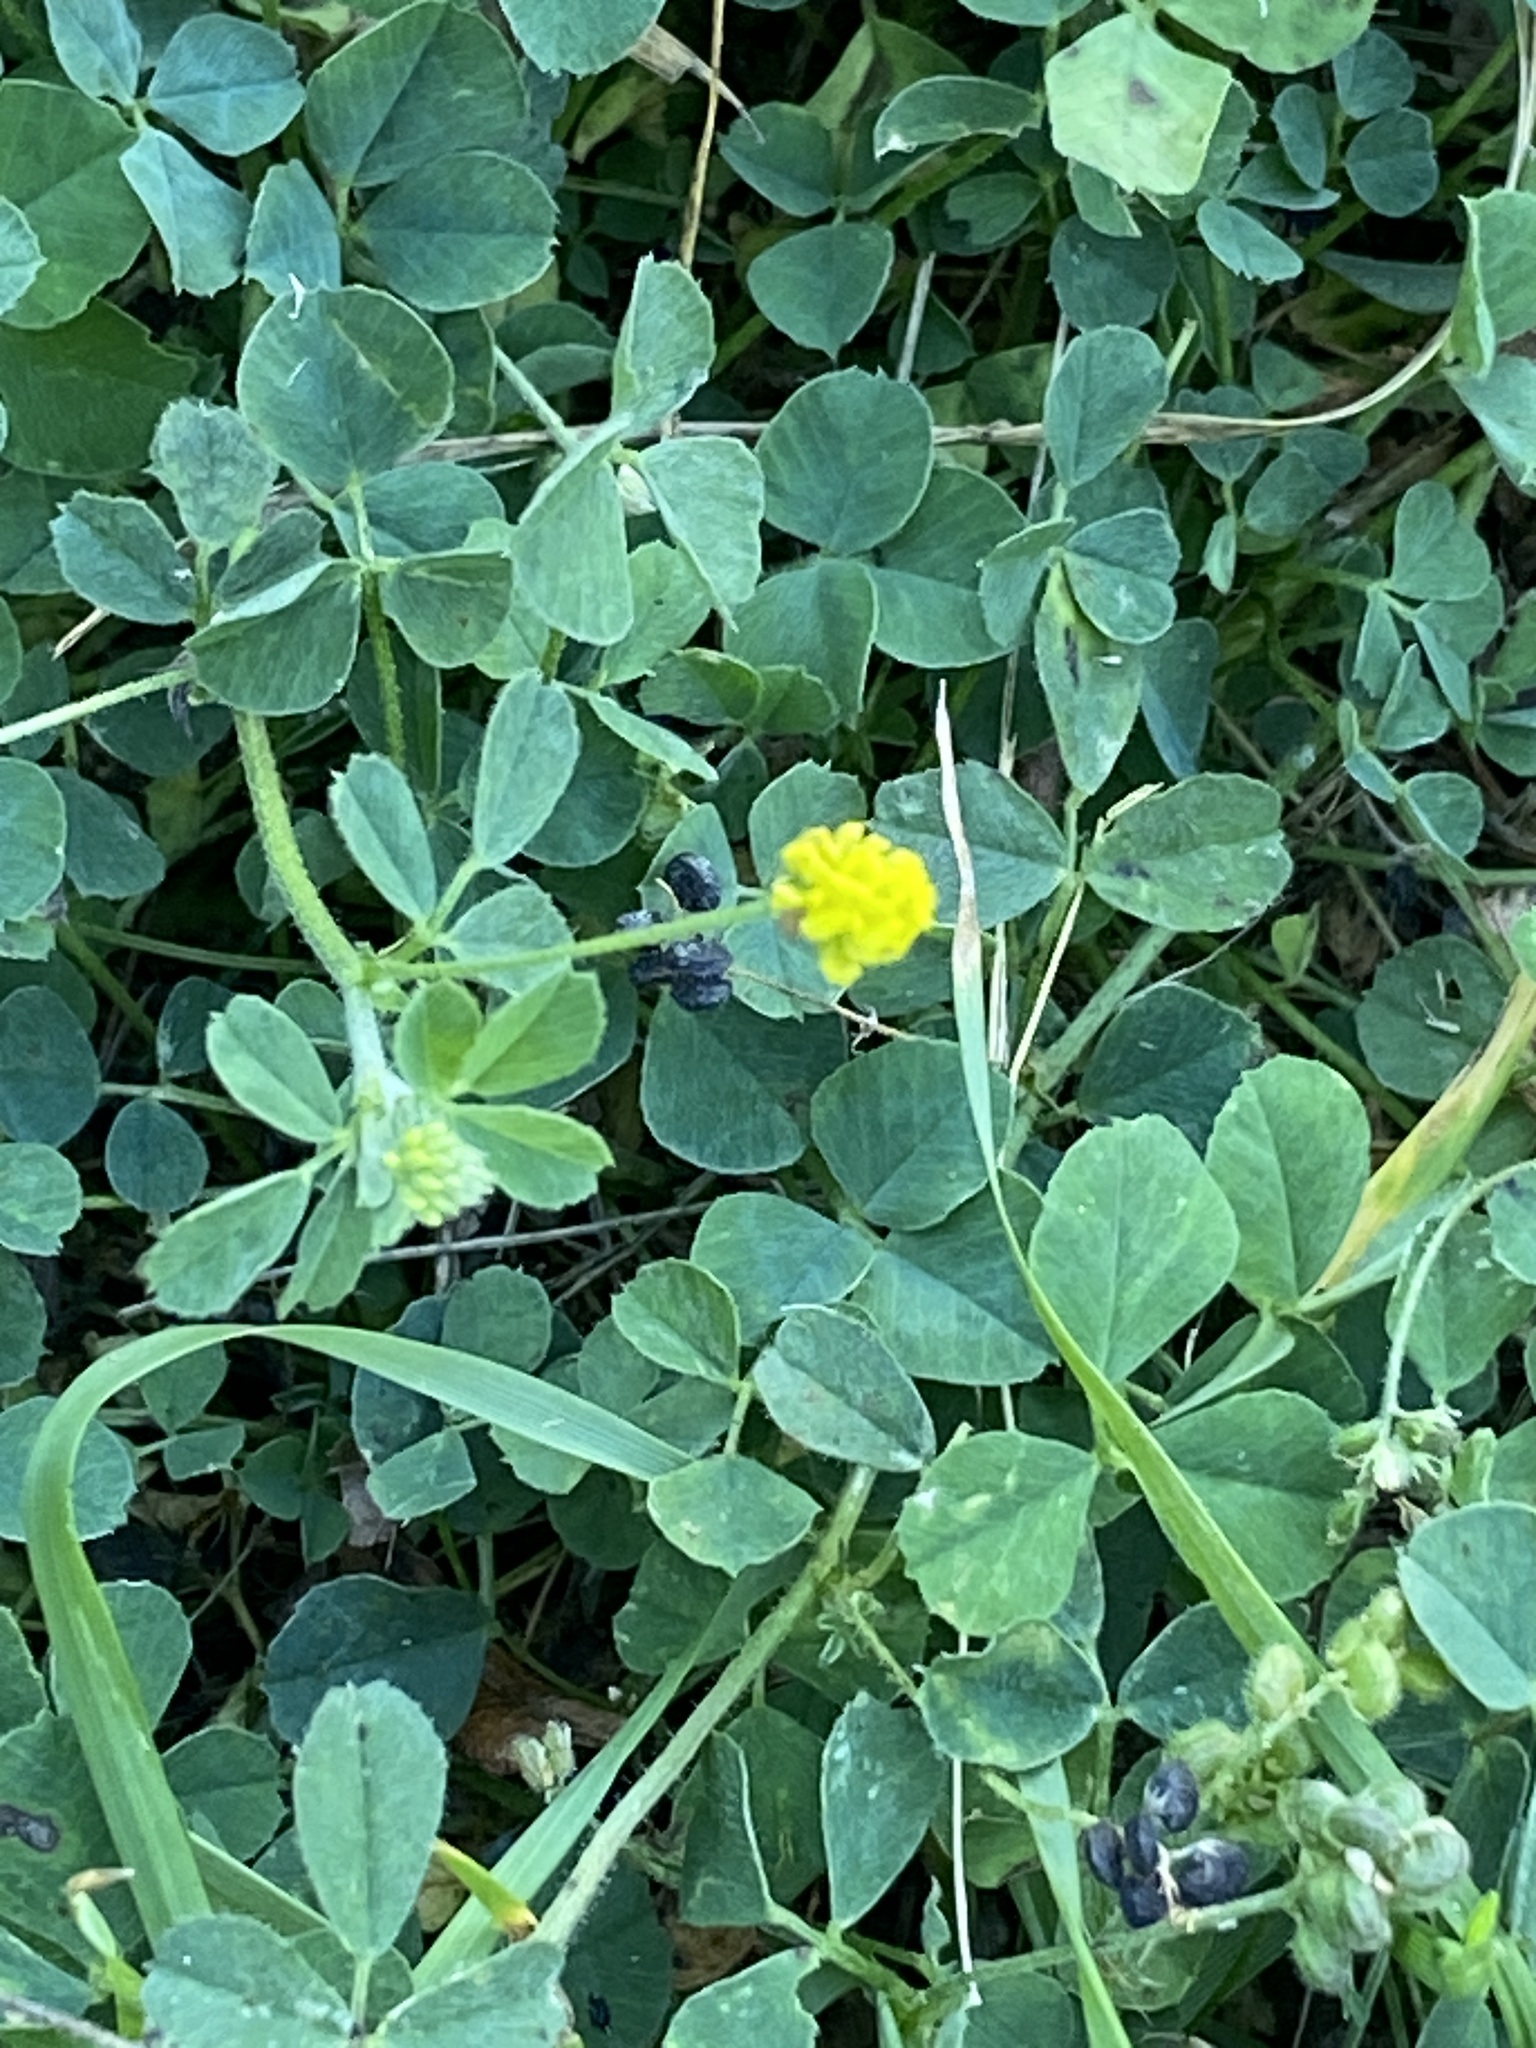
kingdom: Plantae
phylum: Tracheophyta
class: Magnoliopsida
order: Fabales
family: Fabaceae
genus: Medicago
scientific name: Medicago lupulina
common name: Black medick
